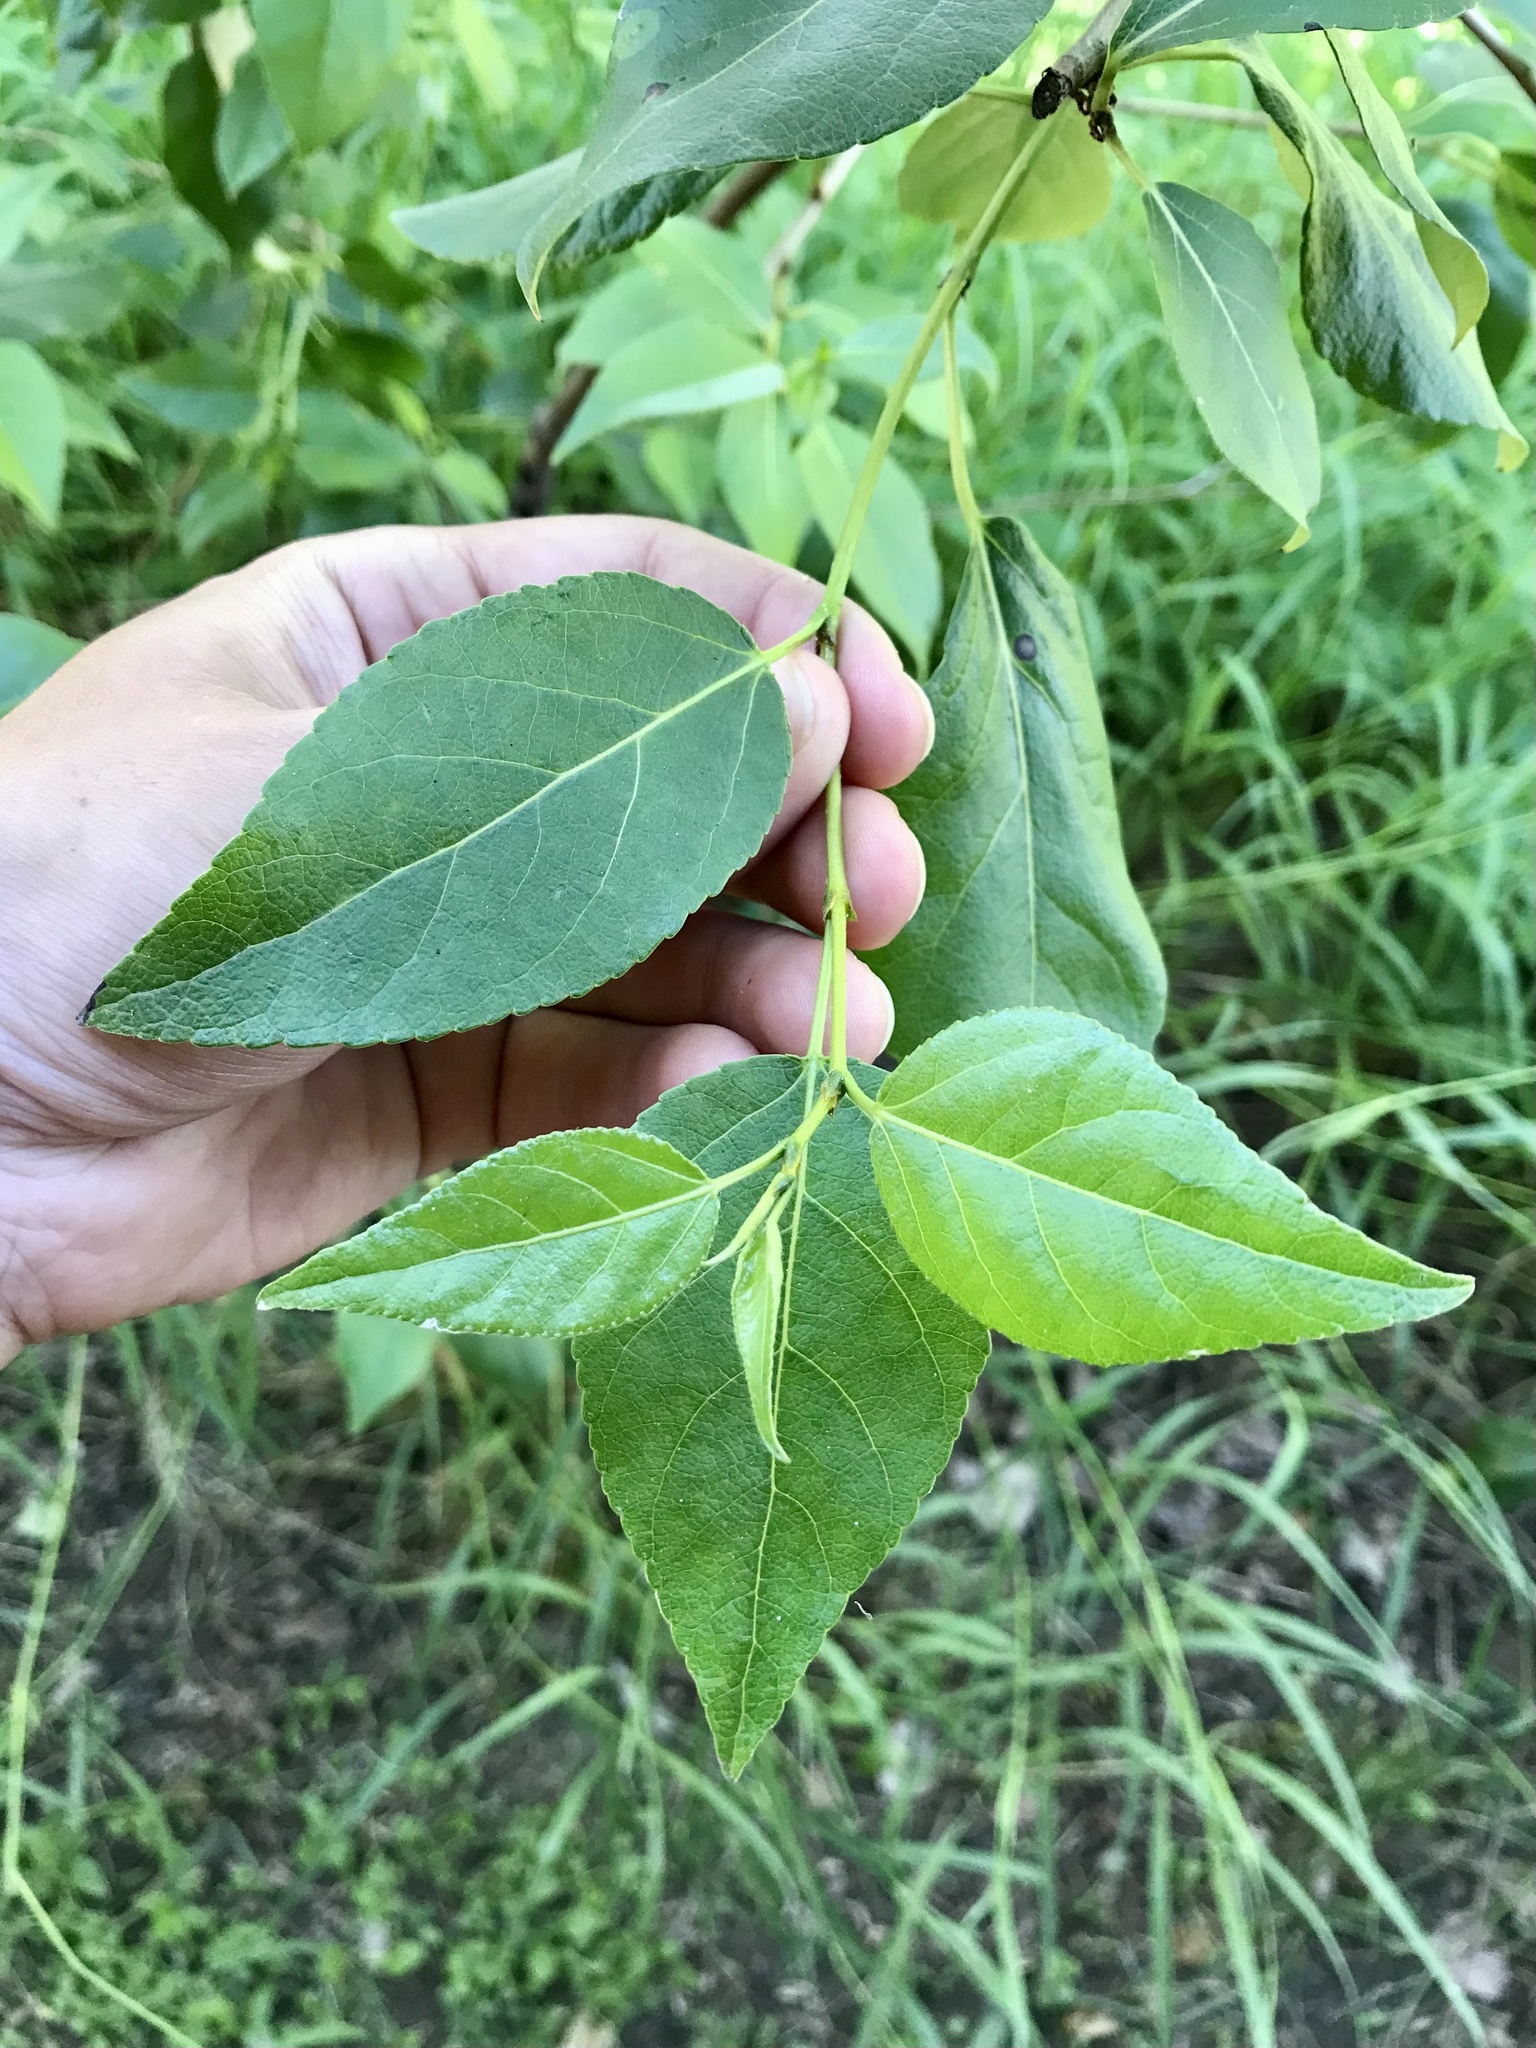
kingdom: Plantae
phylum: Tracheophyta
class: Magnoliopsida
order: Malpighiales
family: Salicaceae
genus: Populus
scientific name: Populus balsamifera
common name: Balsam poplar
